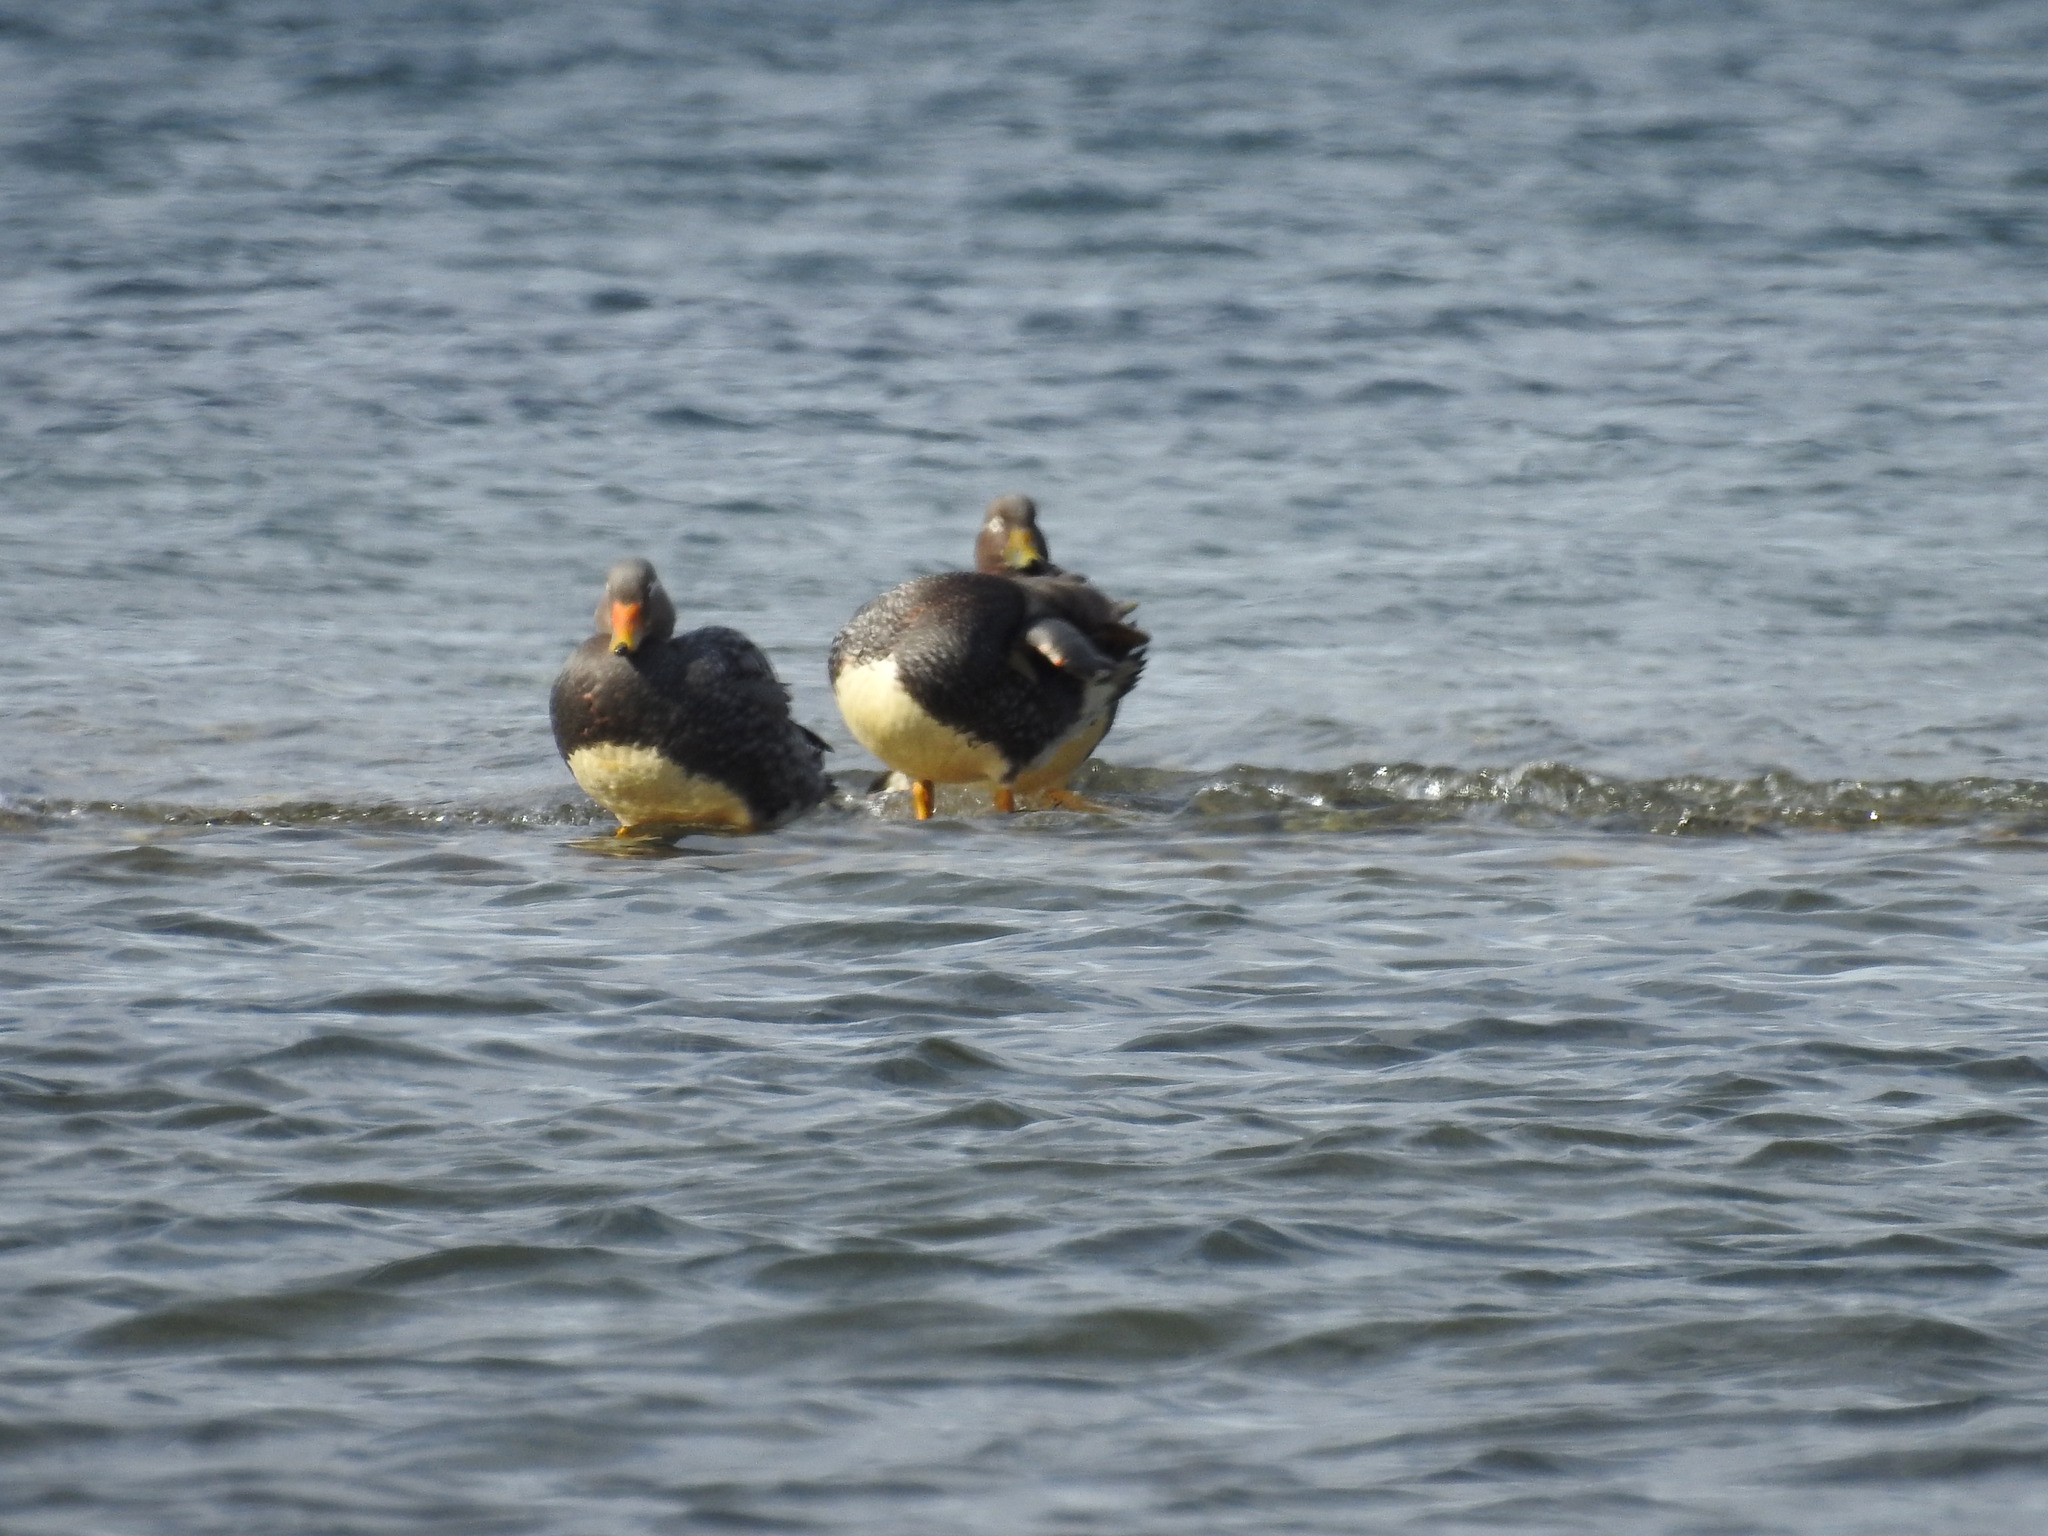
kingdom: Animalia
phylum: Chordata
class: Aves
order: Anseriformes
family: Anatidae
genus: Tachyeres
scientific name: Tachyeres patachonicus
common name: Flying steamer duck
